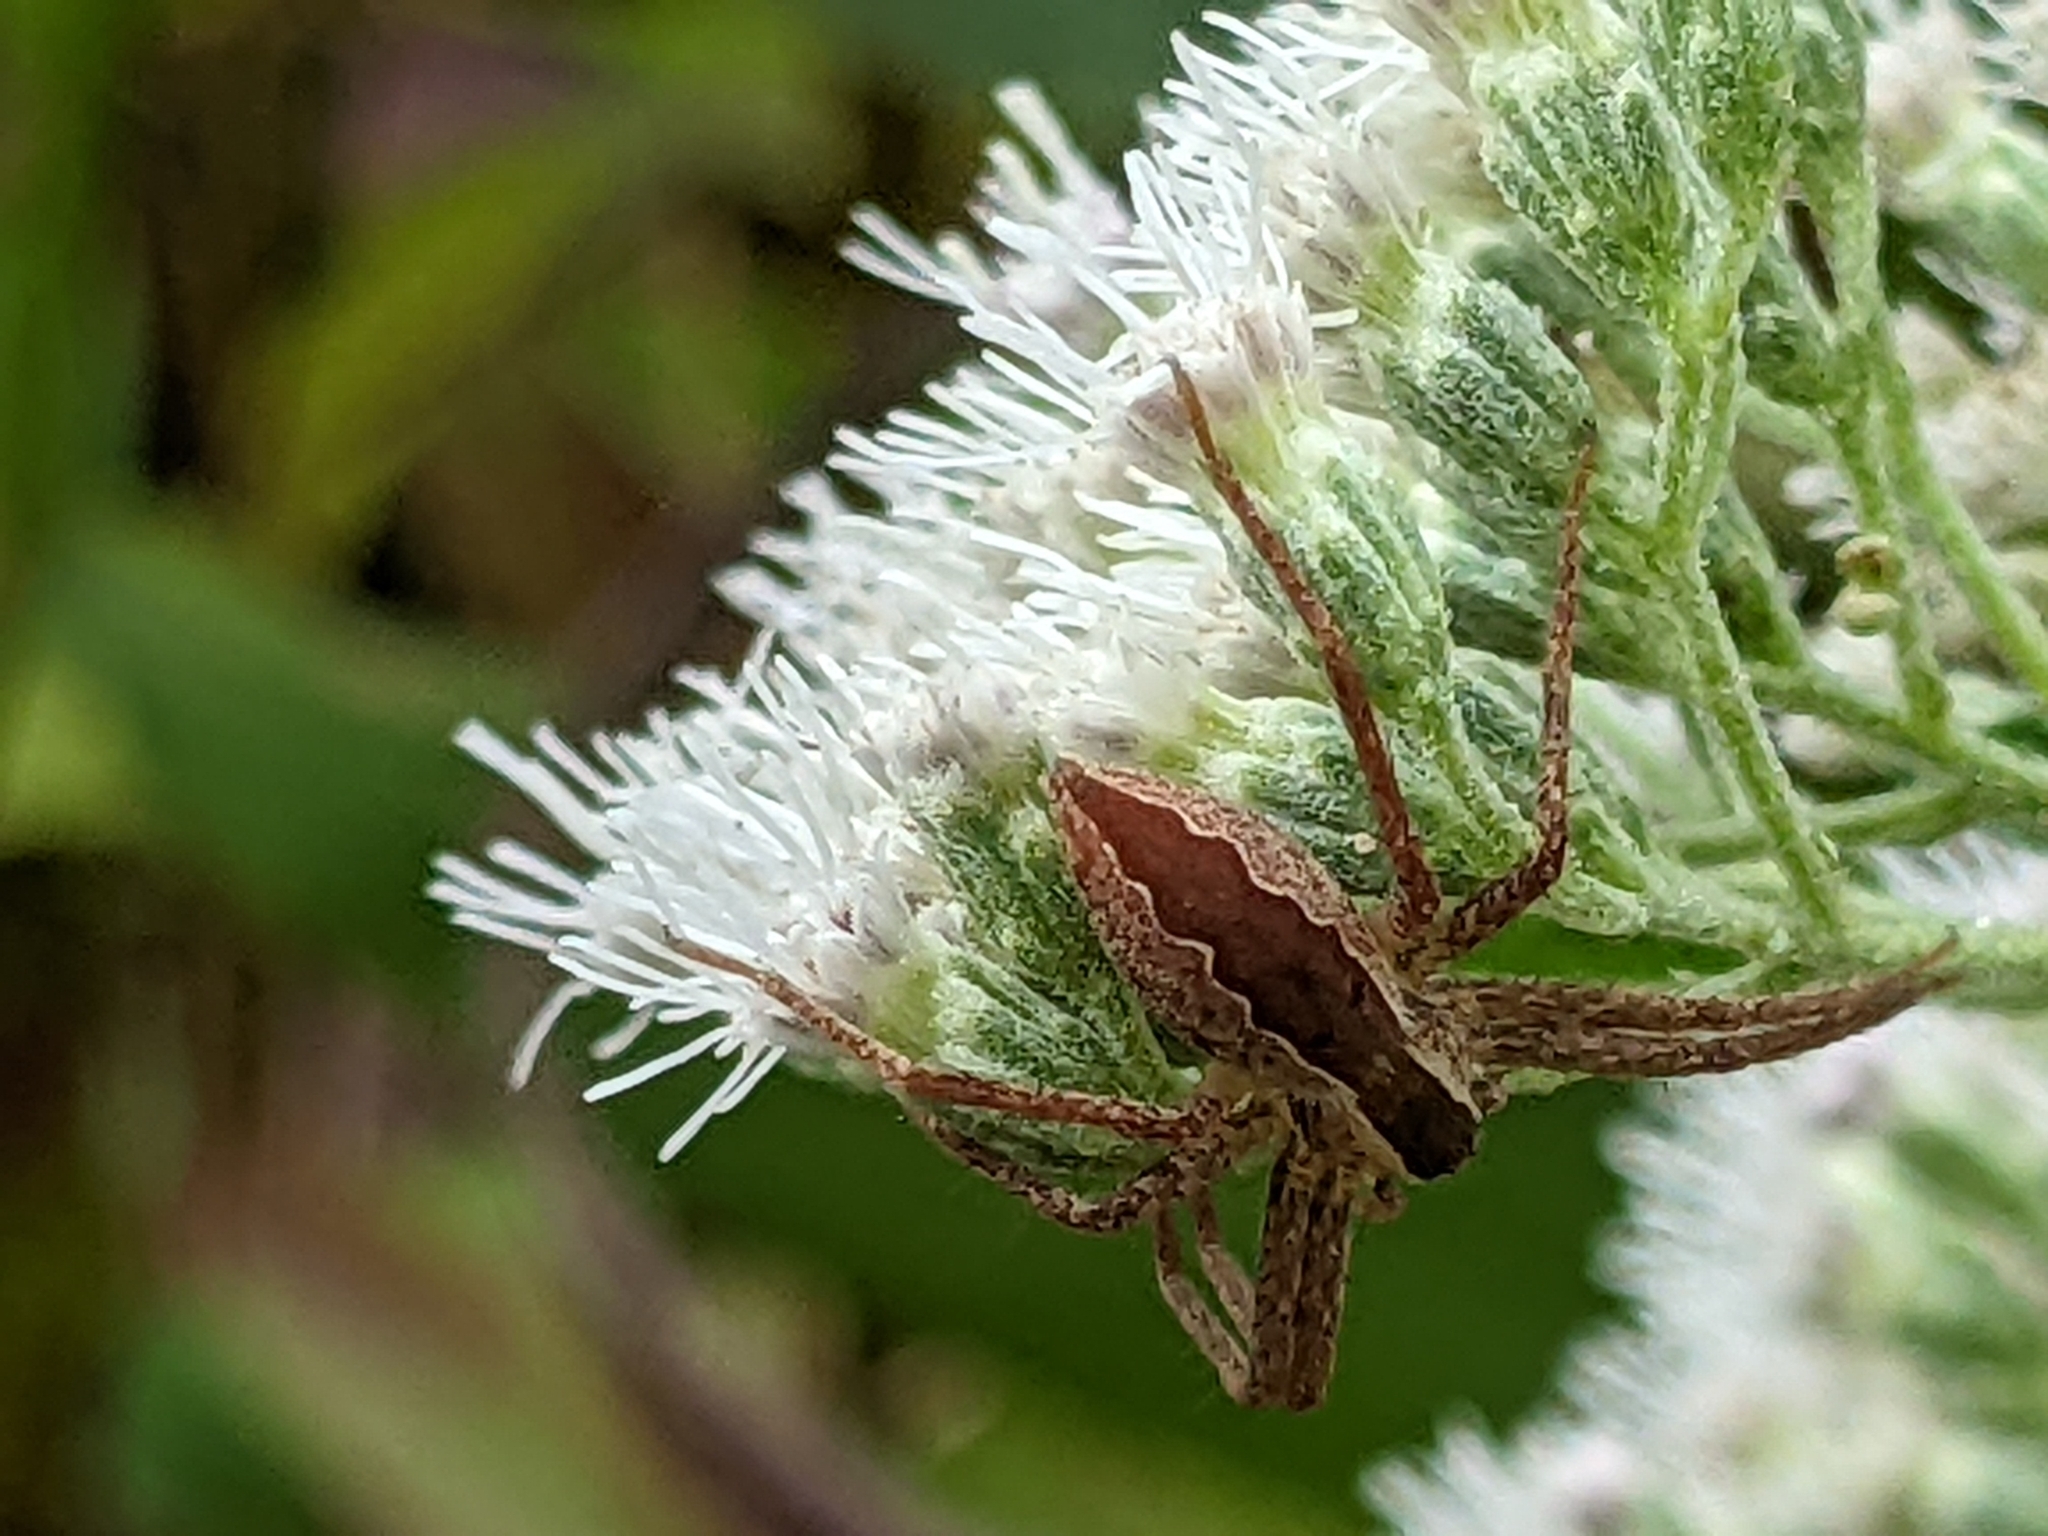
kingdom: Animalia
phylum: Arthropoda
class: Arachnida
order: Araneae
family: Pisauridae
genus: Pisaurina
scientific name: Pisaurina mira
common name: American nursery web spider
